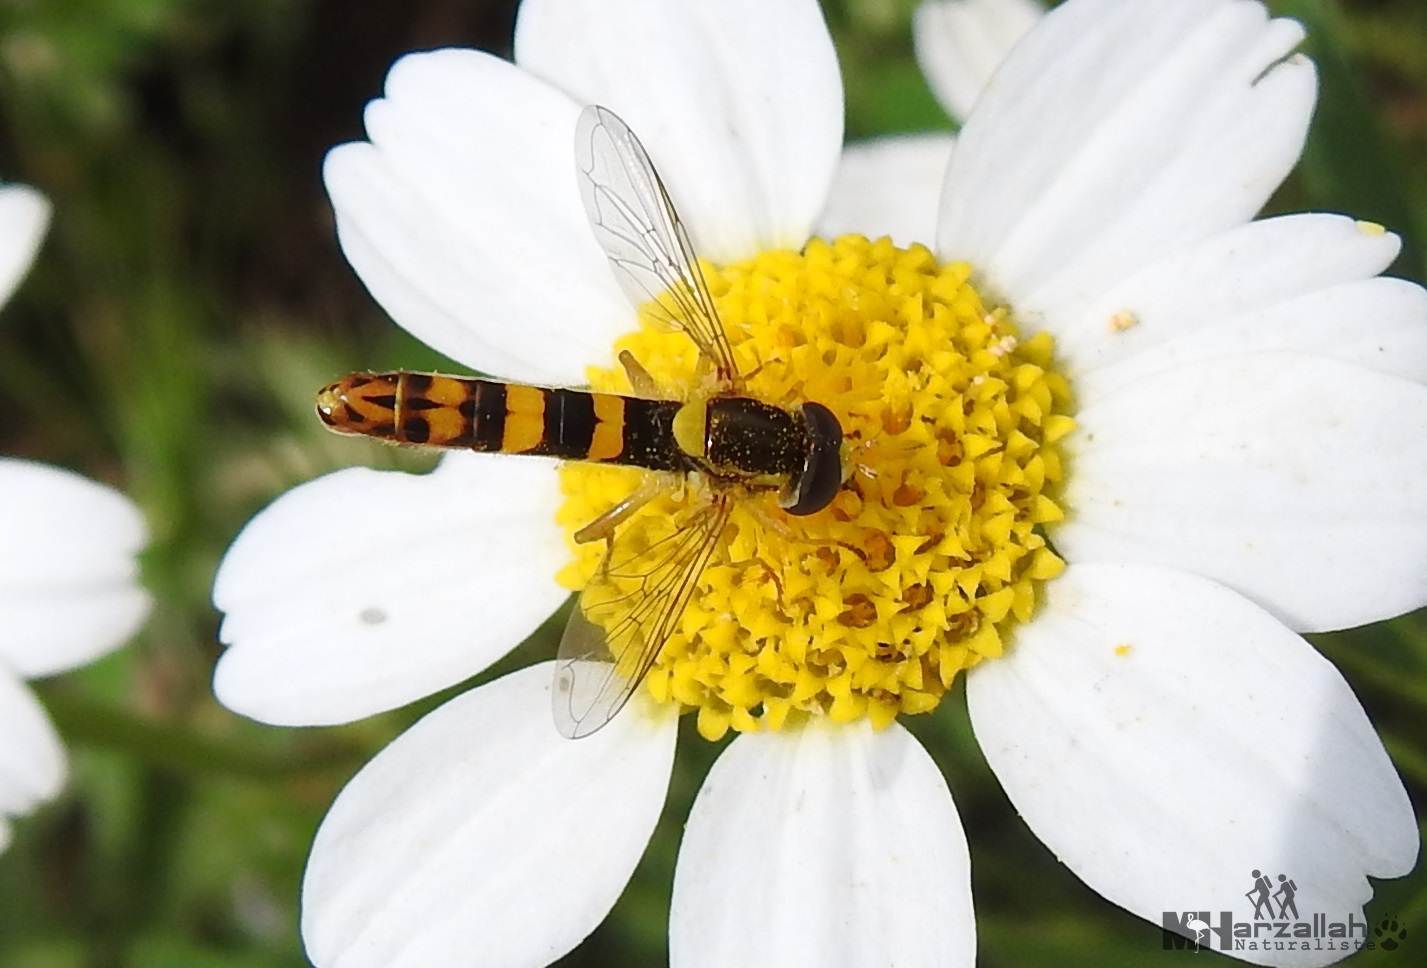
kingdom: Animalia
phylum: Arthropoda
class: Insecta
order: Diptera
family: Syrphidae
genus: Sphaerophoria
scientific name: Sphaerophoria scripta
